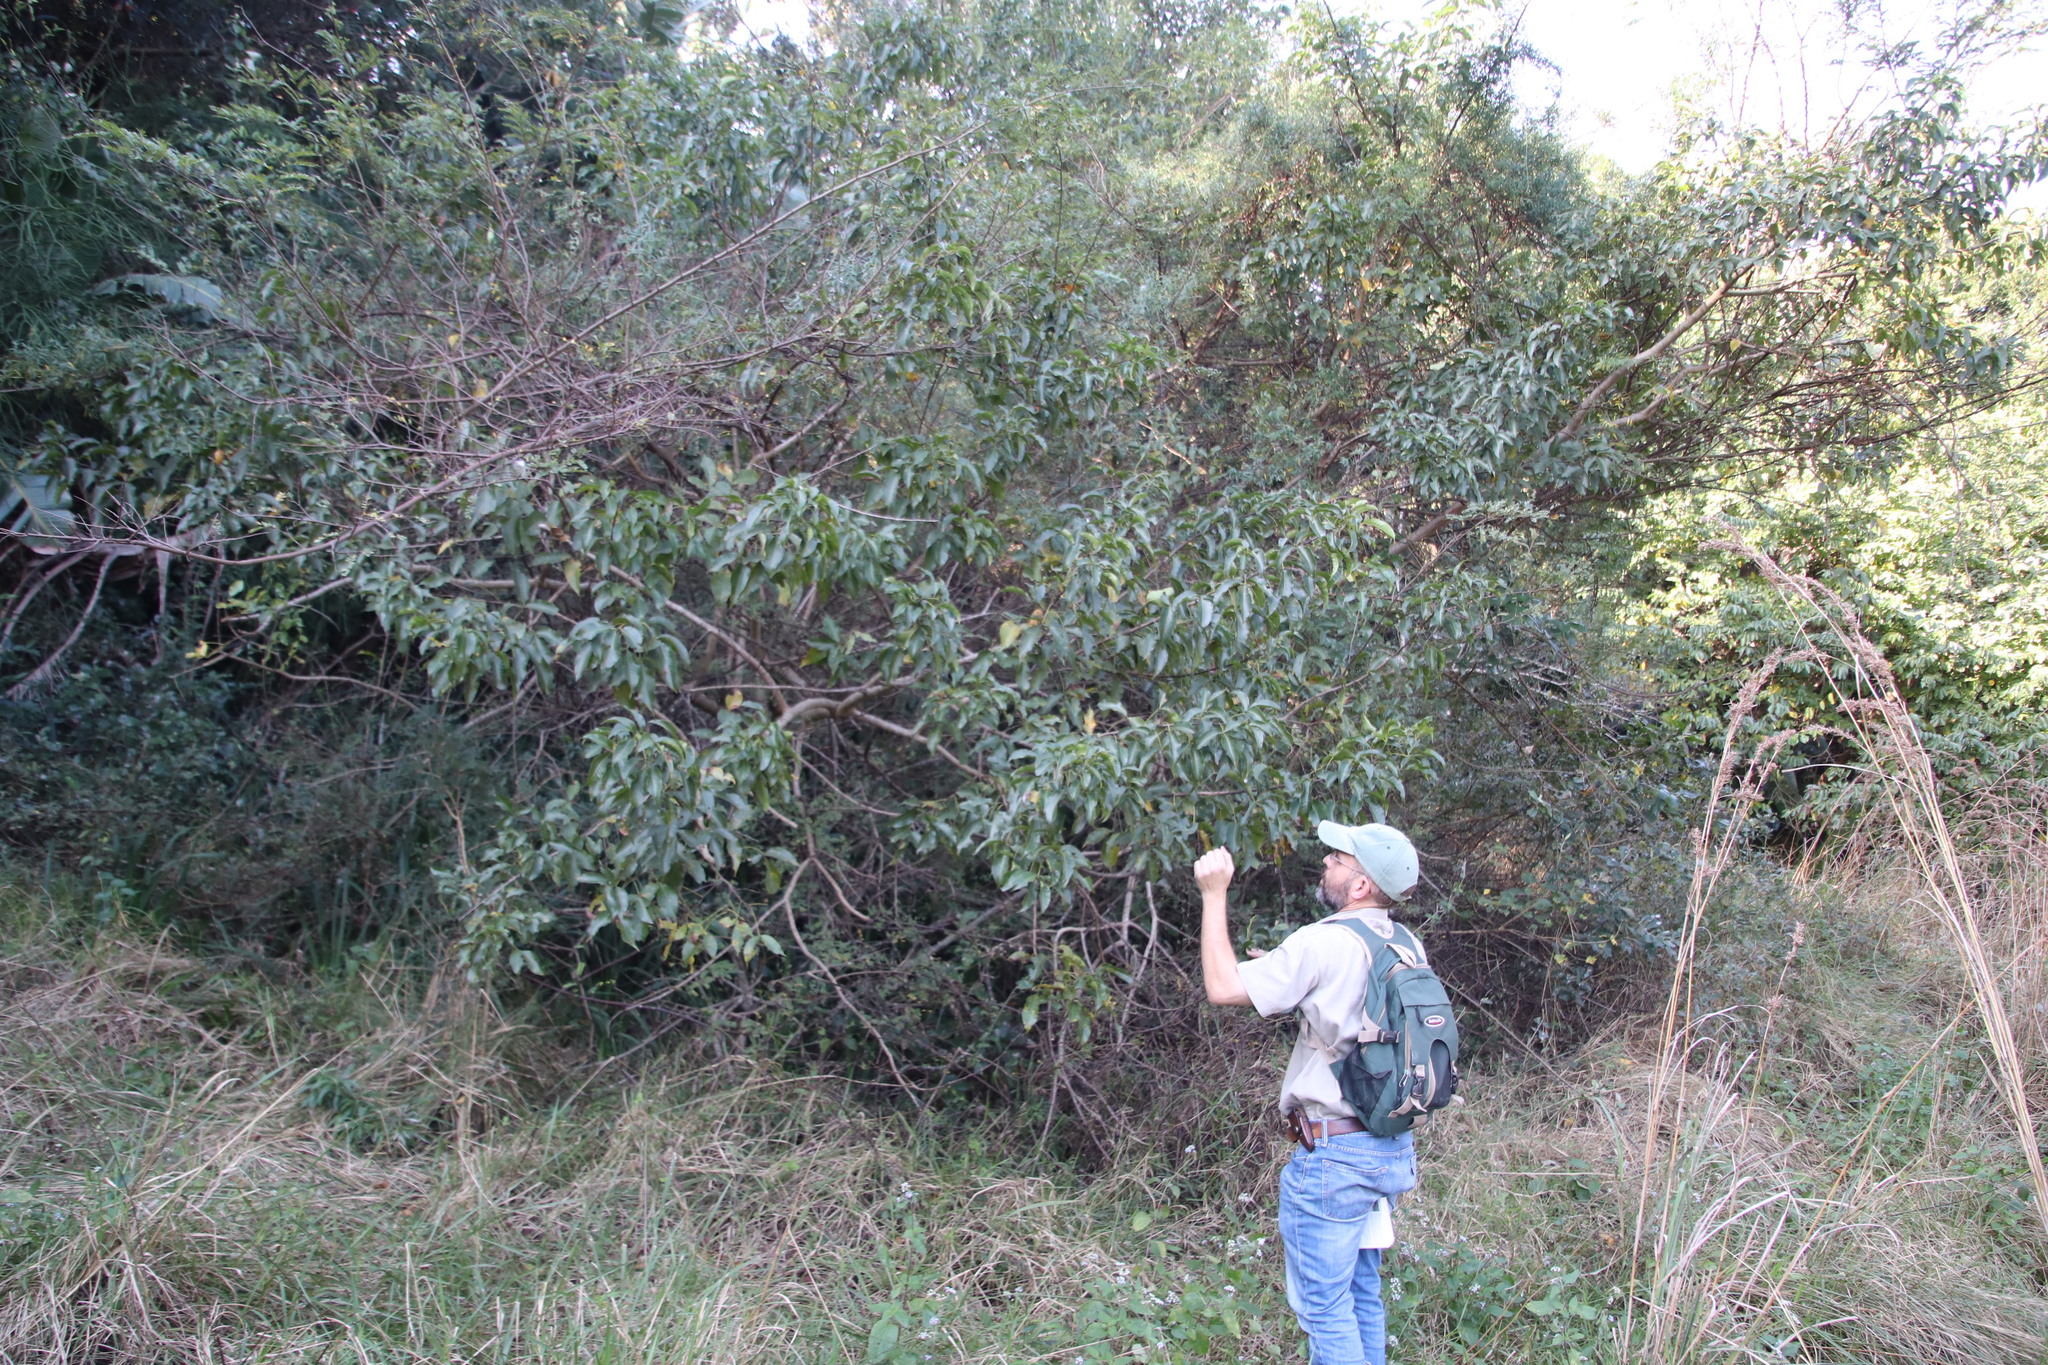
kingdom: Plantae
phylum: Tracheophyta
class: Magnoliopsida
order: Sapindales
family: Anacardiaceae
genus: Searsia
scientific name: Searsia chirindensis
